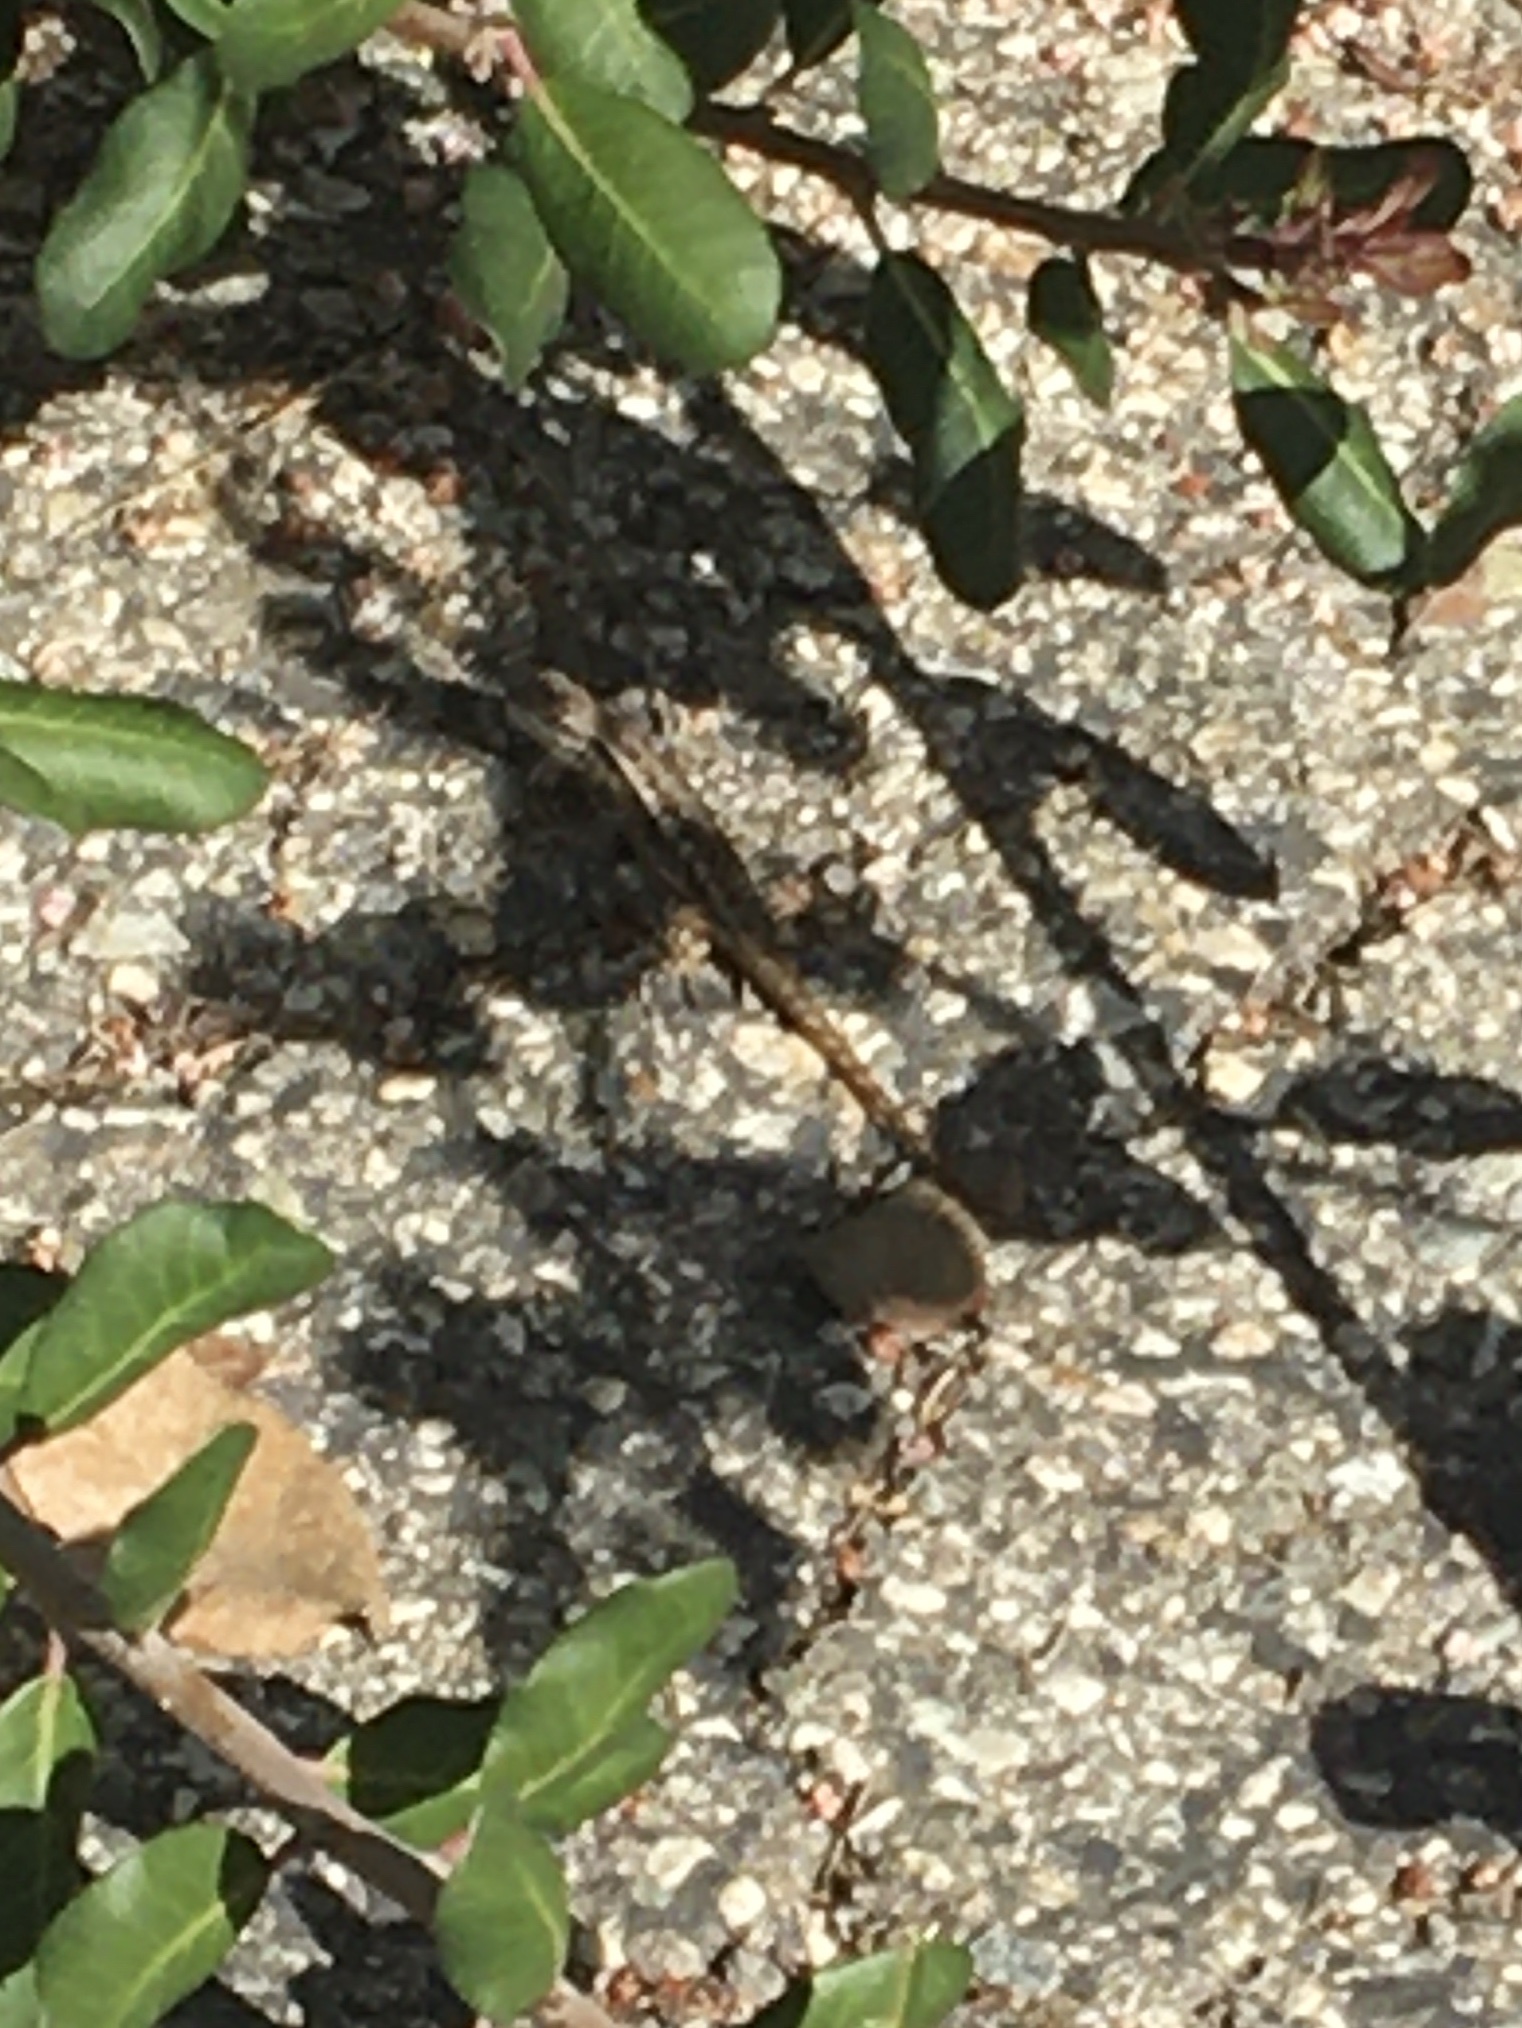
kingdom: Animalia
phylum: Chordata
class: Squamata
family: Phrynosomatidae
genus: Sceloporus
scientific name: Sceloporus occidentalis
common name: Western fence lizard
